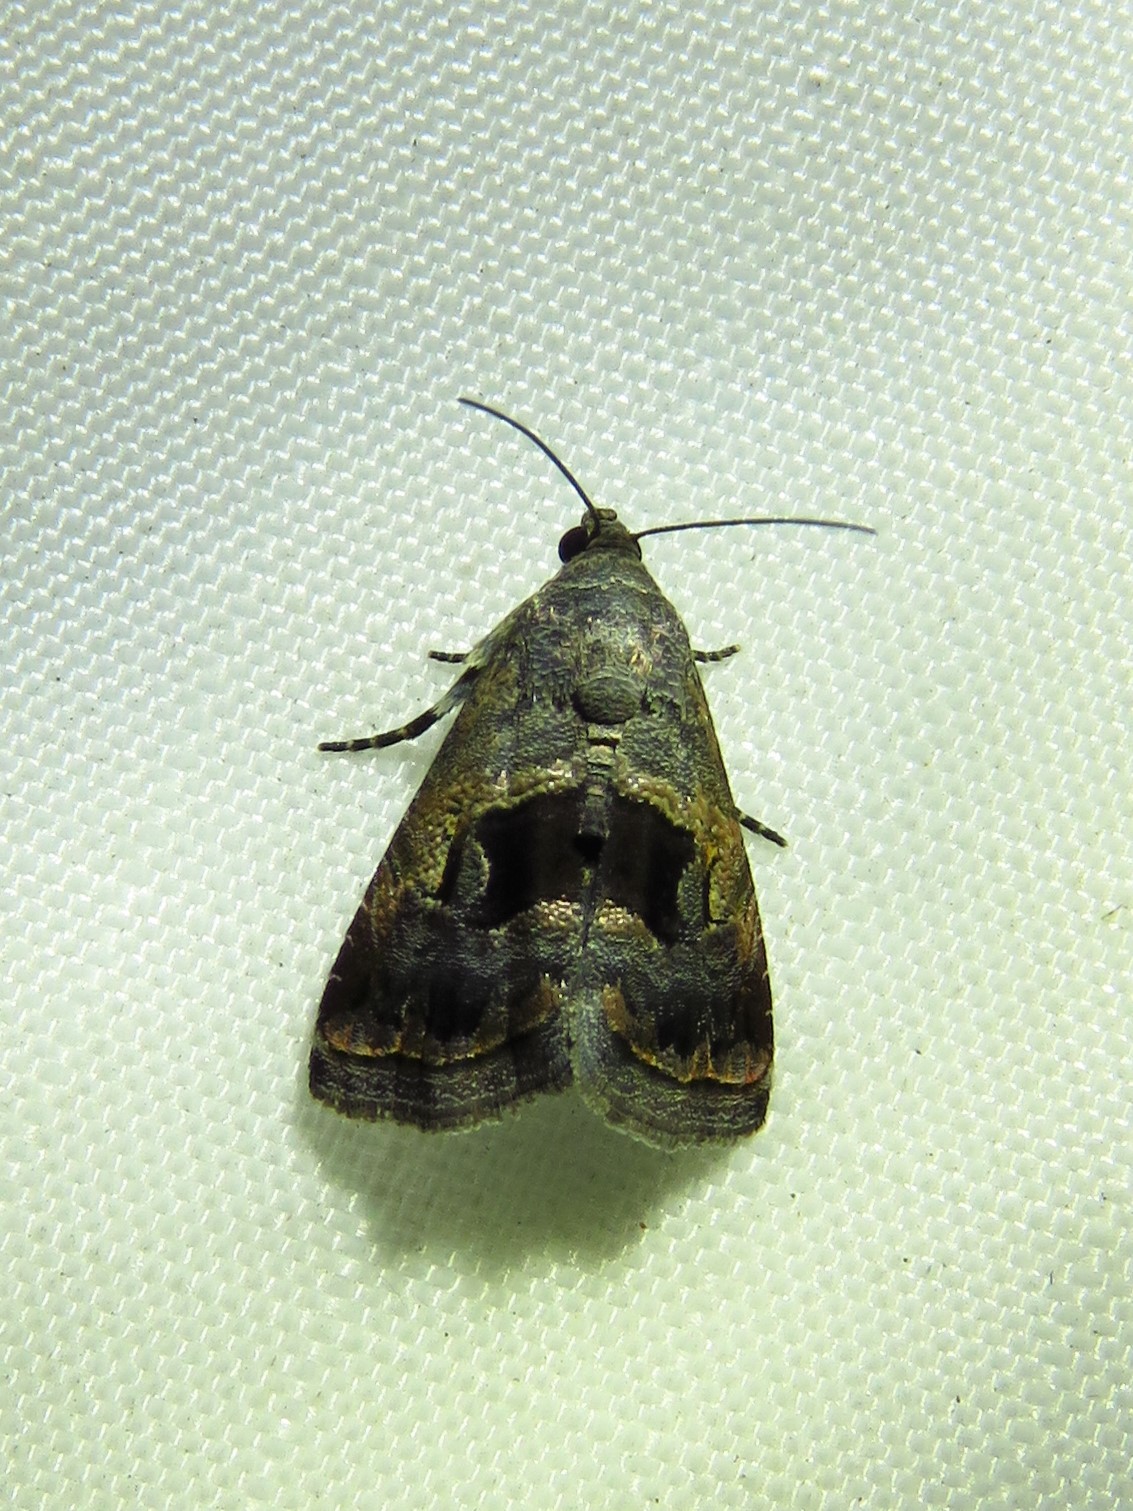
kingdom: Animalia
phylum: Arthropoda
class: Insecta
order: Lepidoptera
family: Noctuidae
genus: Tripudia
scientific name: Tripudia quadrifera
